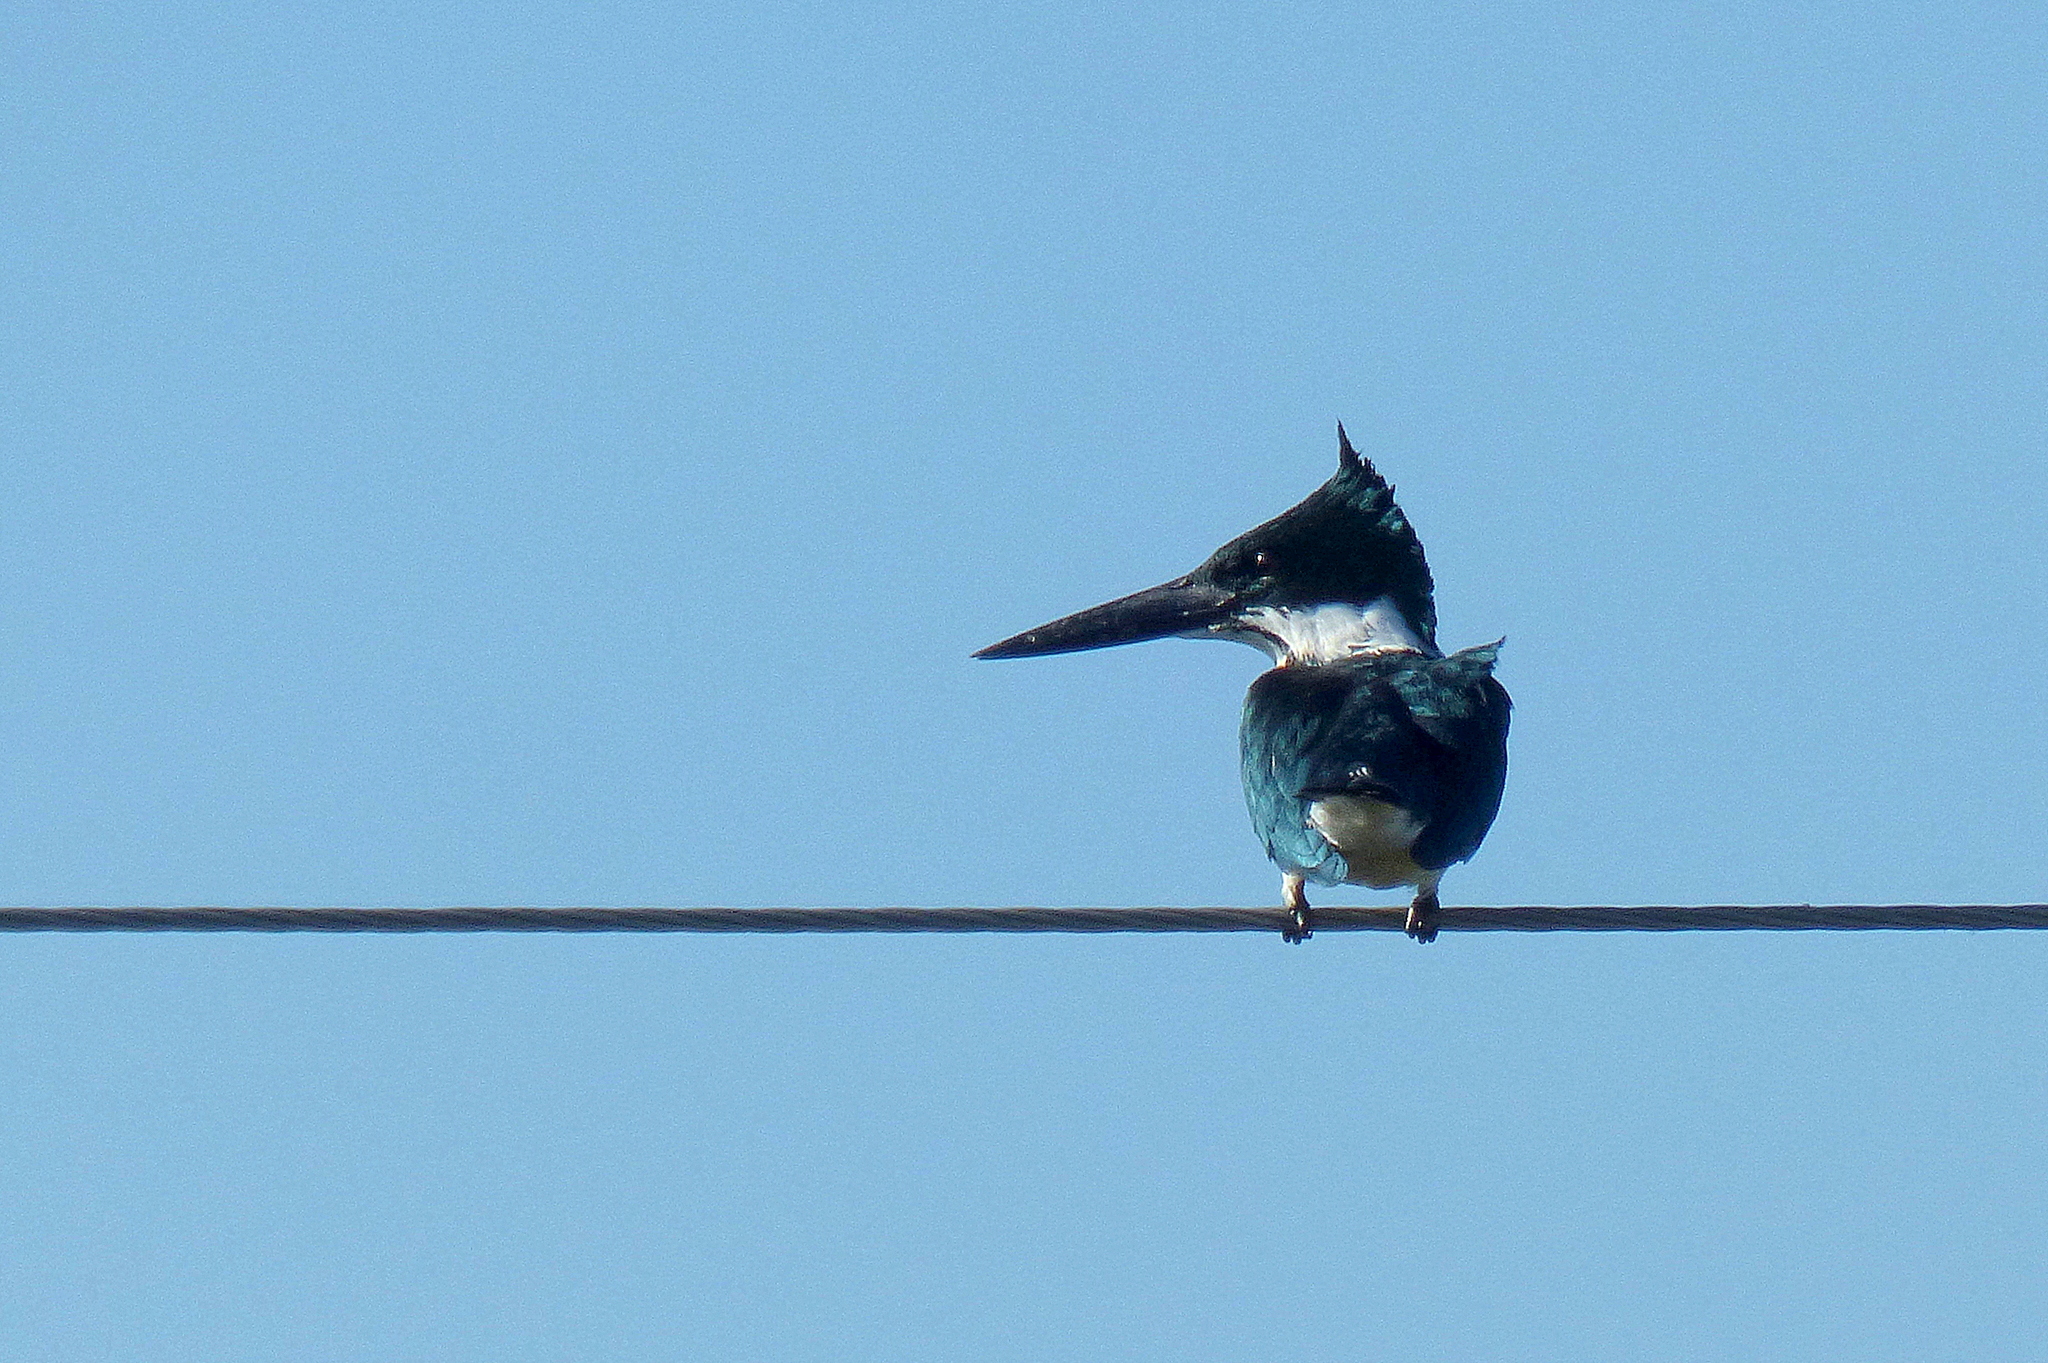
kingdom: Animalia
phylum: Chordata
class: Aves
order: Coraciiformes
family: Alcedinidae
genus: Chloroceryle
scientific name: Chloroceryle amazona
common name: Amazon kingfisher
